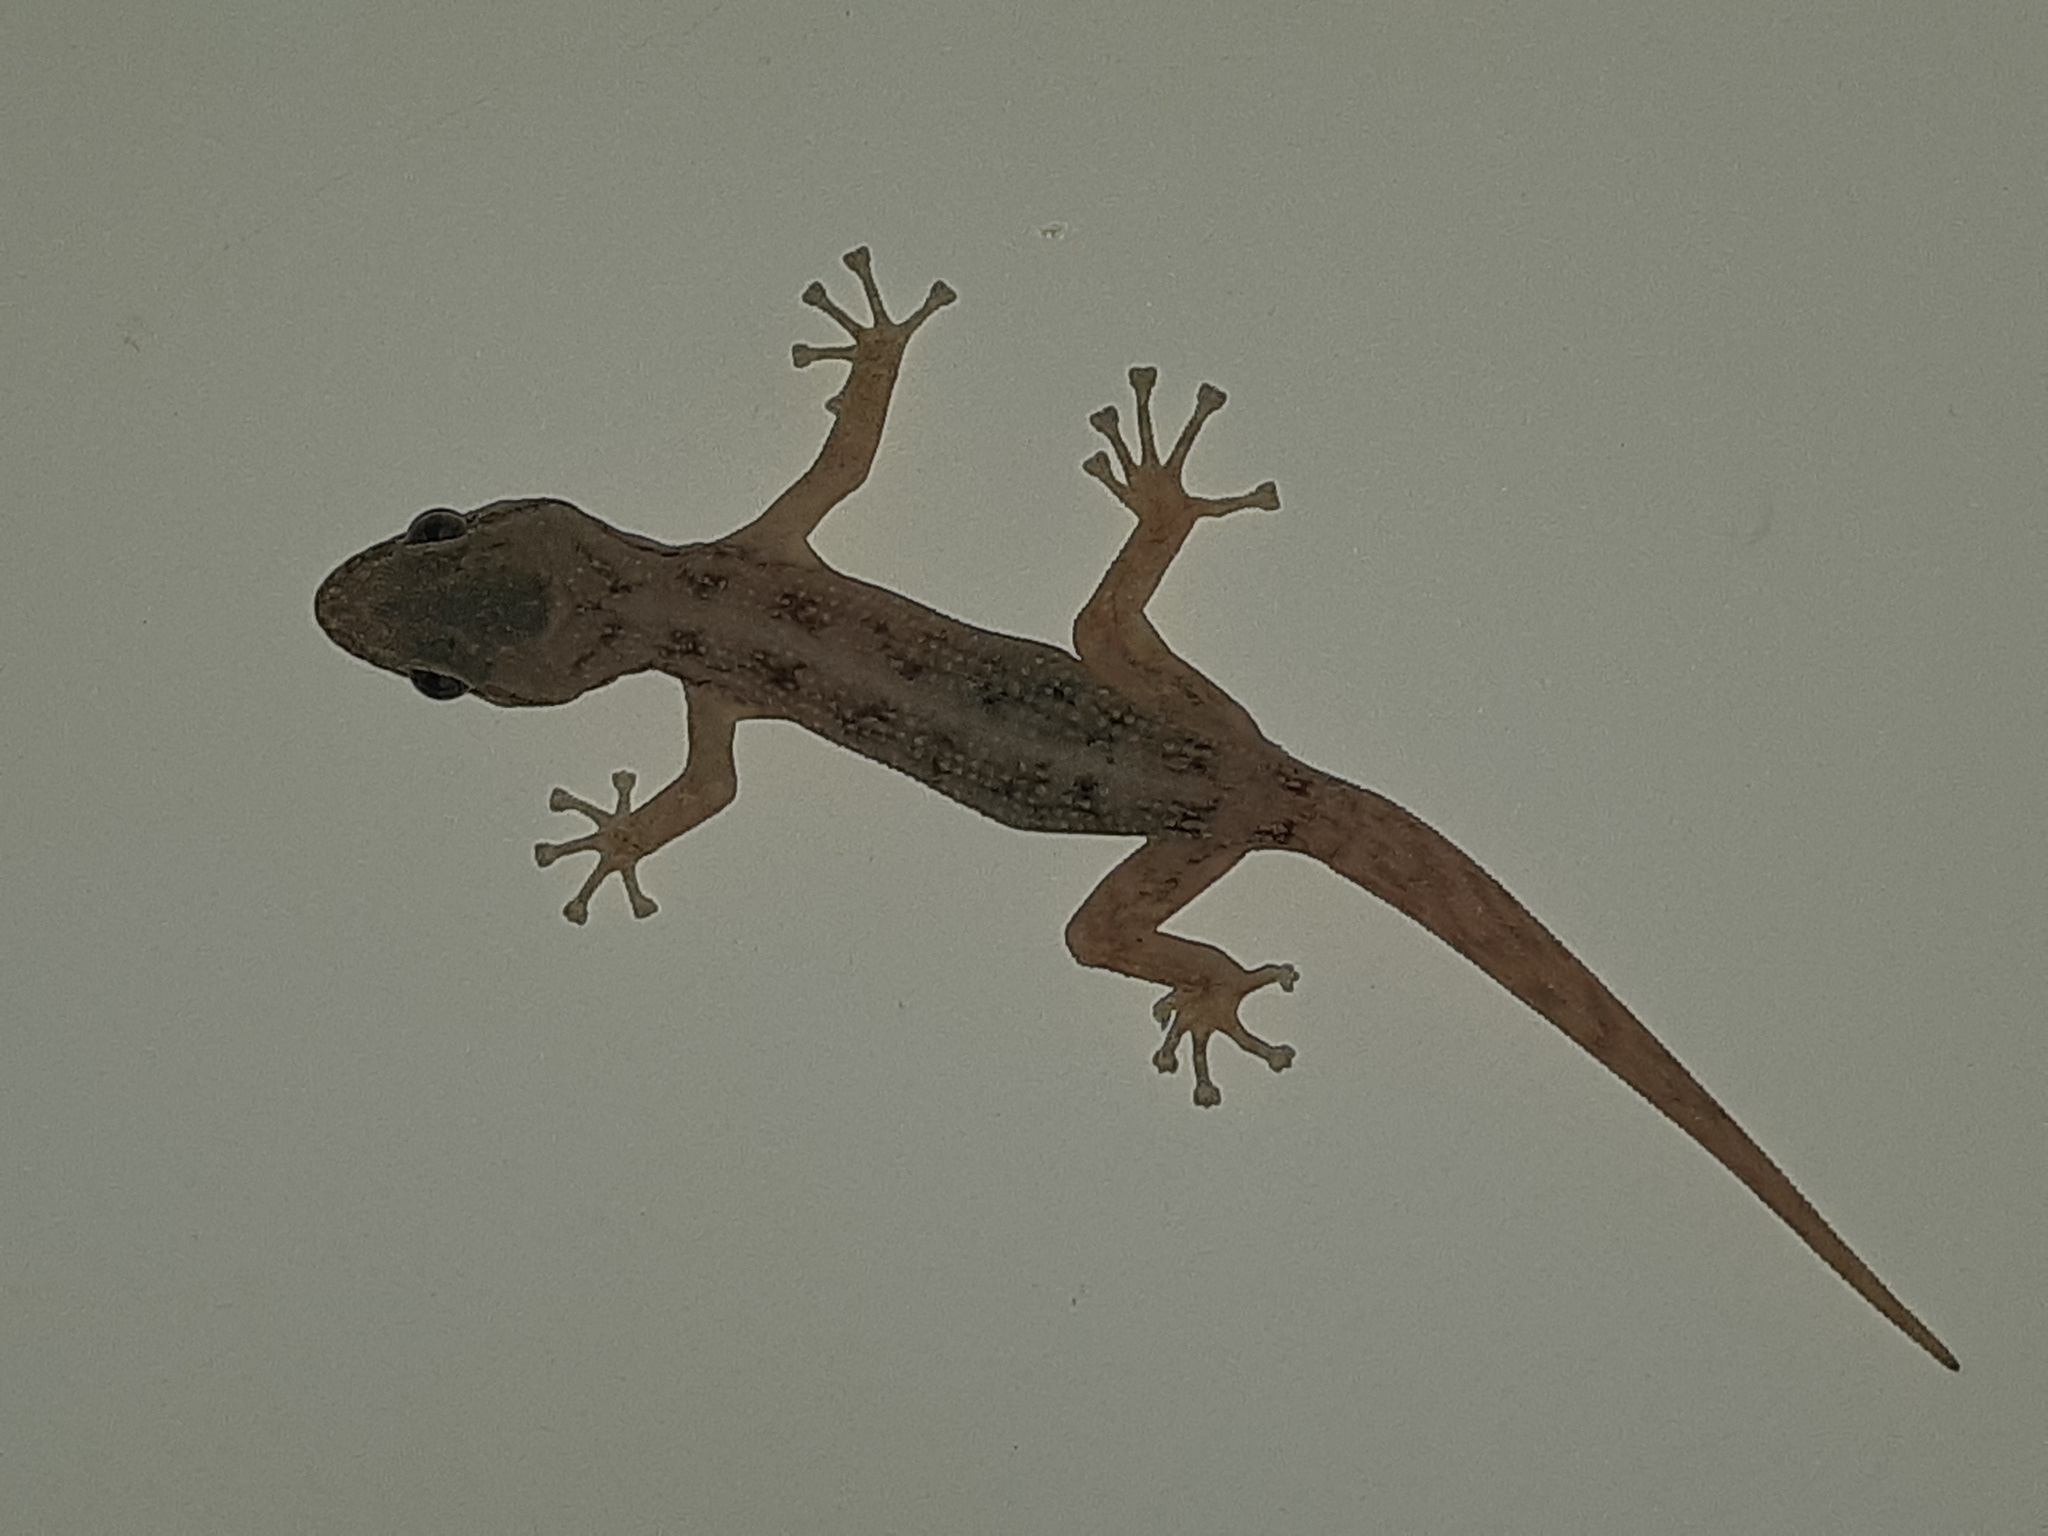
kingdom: Animalia
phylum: Chordata
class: Squamata
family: Phyllodactylidae
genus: Phyllodactylus
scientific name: Phyllodactylus reissii
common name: Peters' leaf-toed gecko
